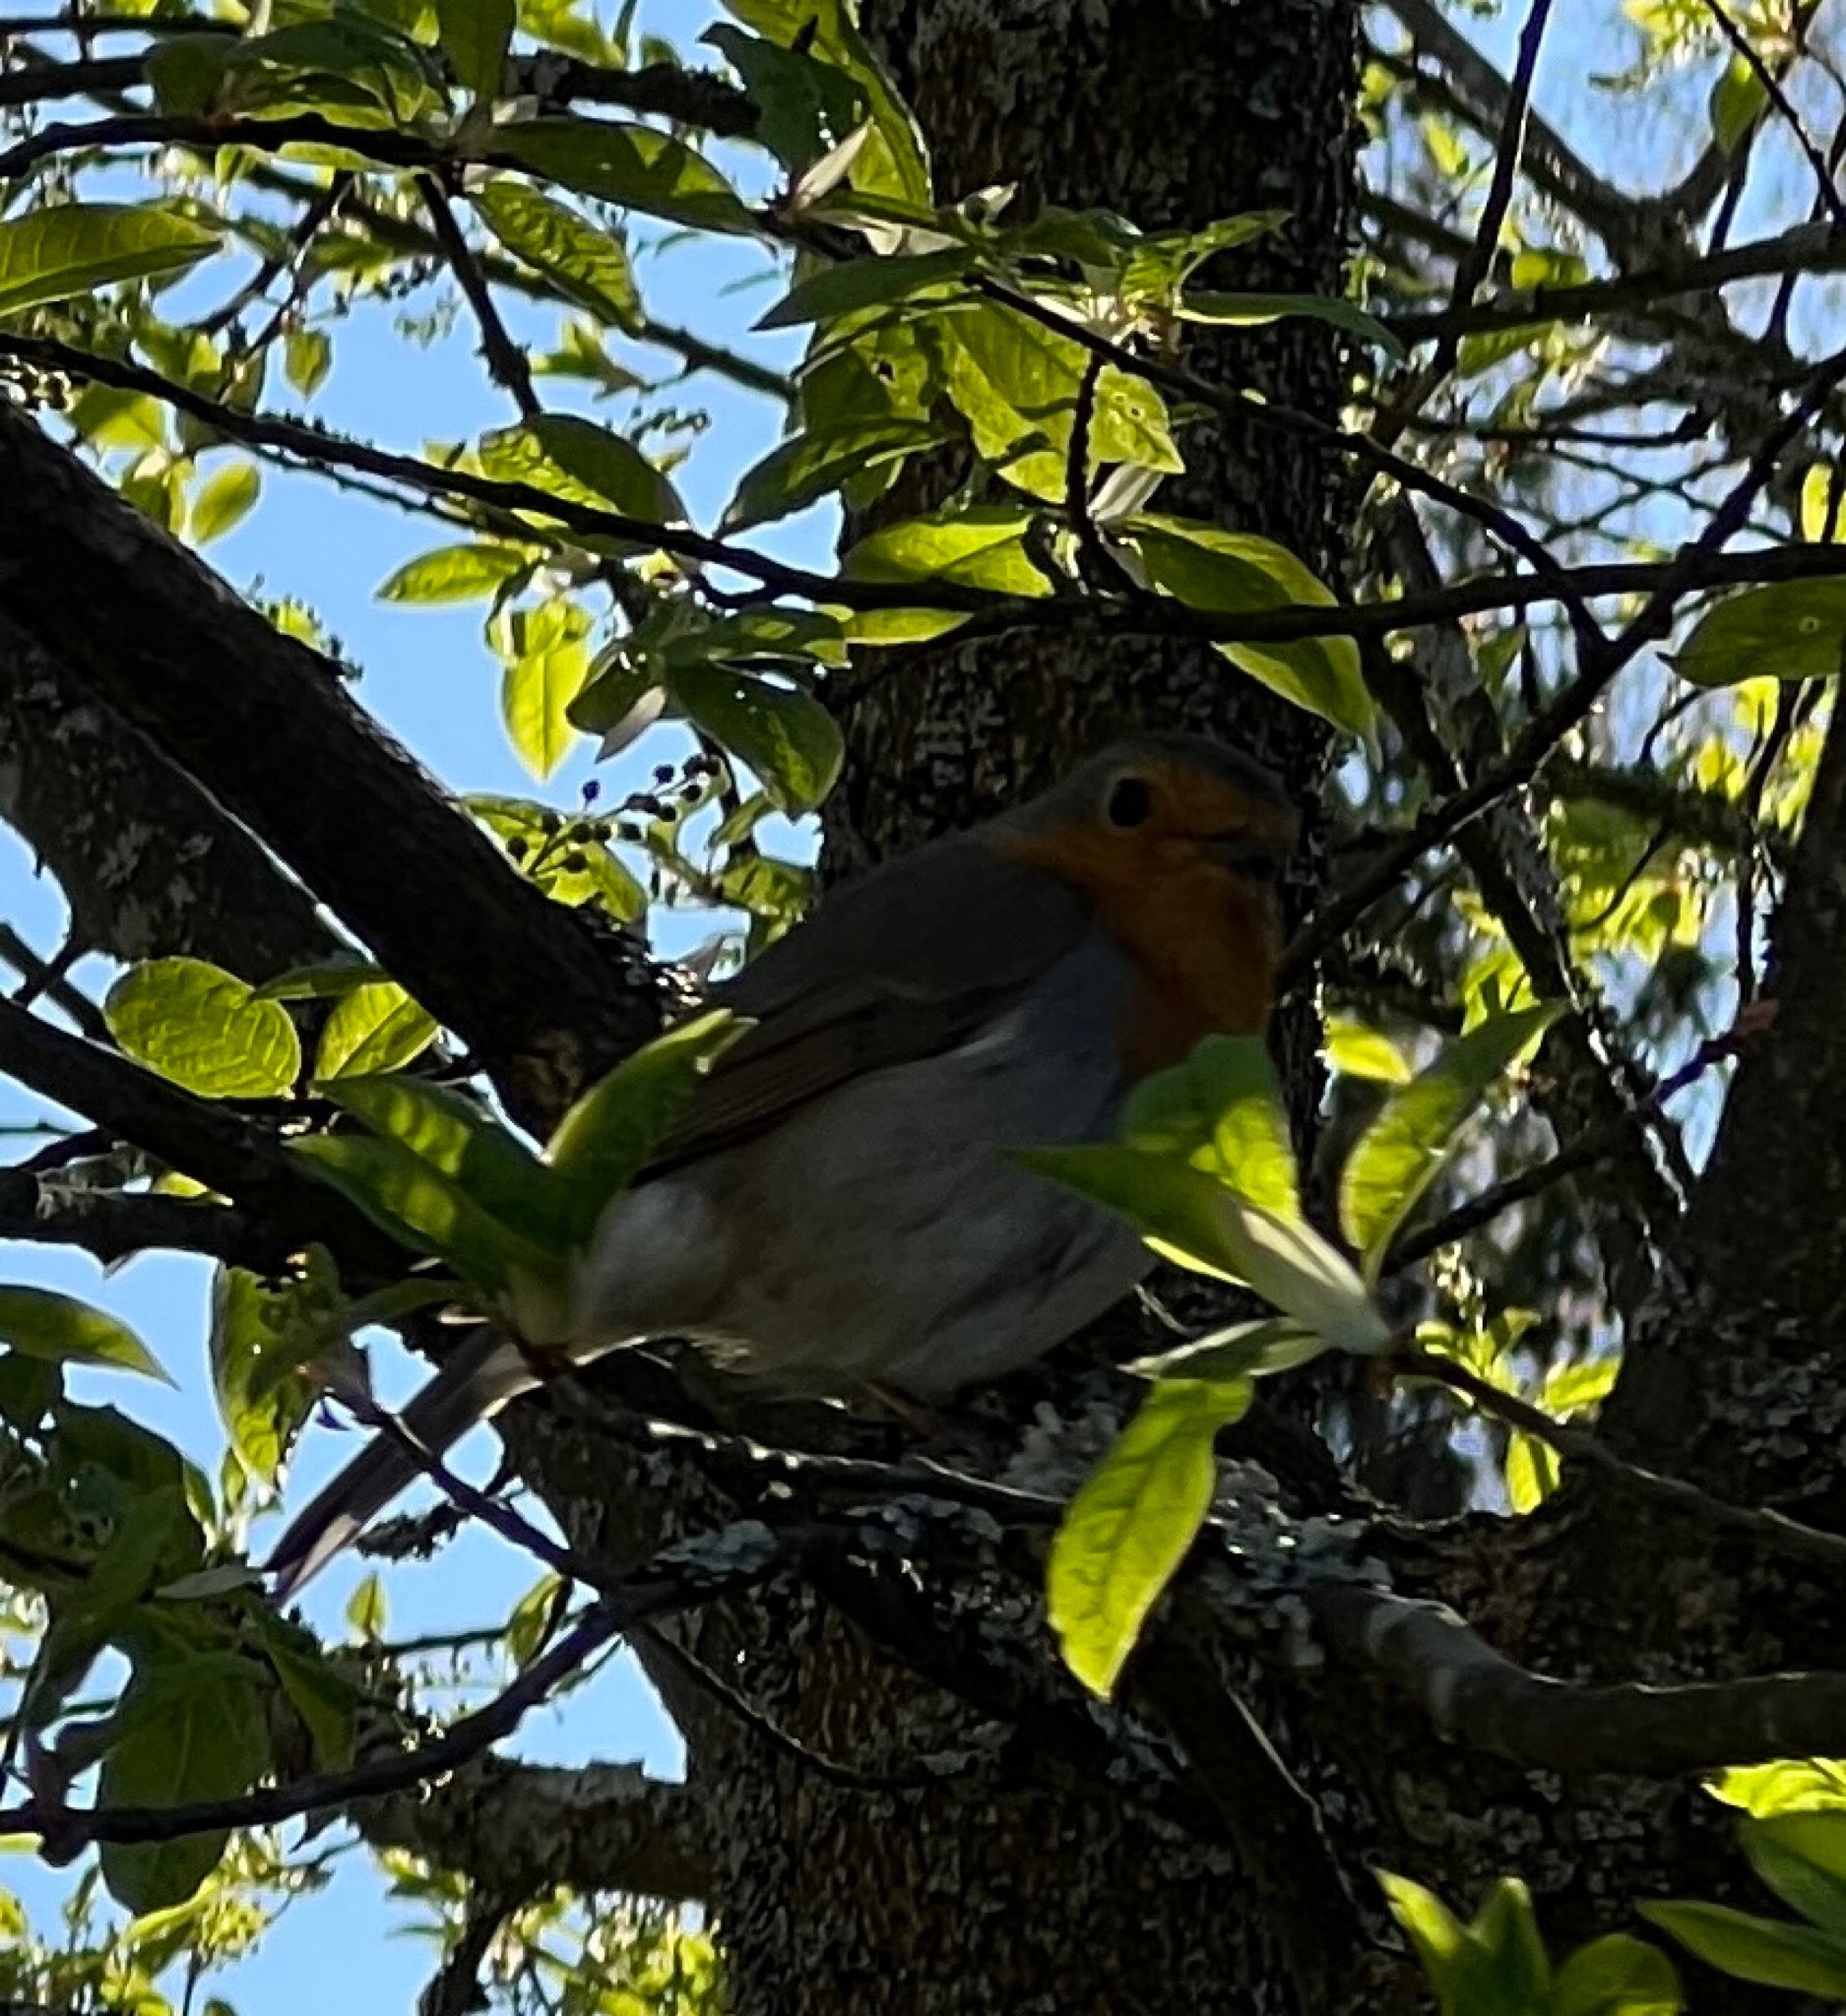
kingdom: Animalia
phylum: Chordata
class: Aves
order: Passeriformes
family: Muscicapidae
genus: Erithacus
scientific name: Erithacus rubecula
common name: European robin
